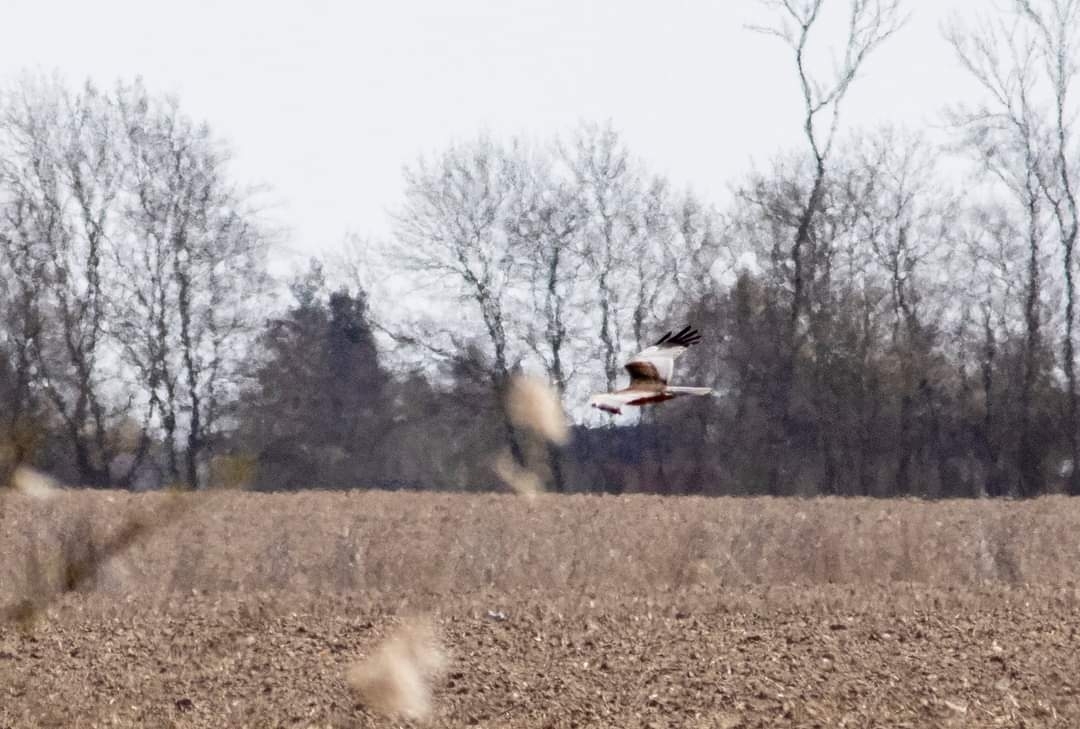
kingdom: Animalia
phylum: Chordata
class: Aves
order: Accipitriformes
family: Accipitridae
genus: Circus
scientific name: Circus aeruginosus
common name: Western marsh harrier
